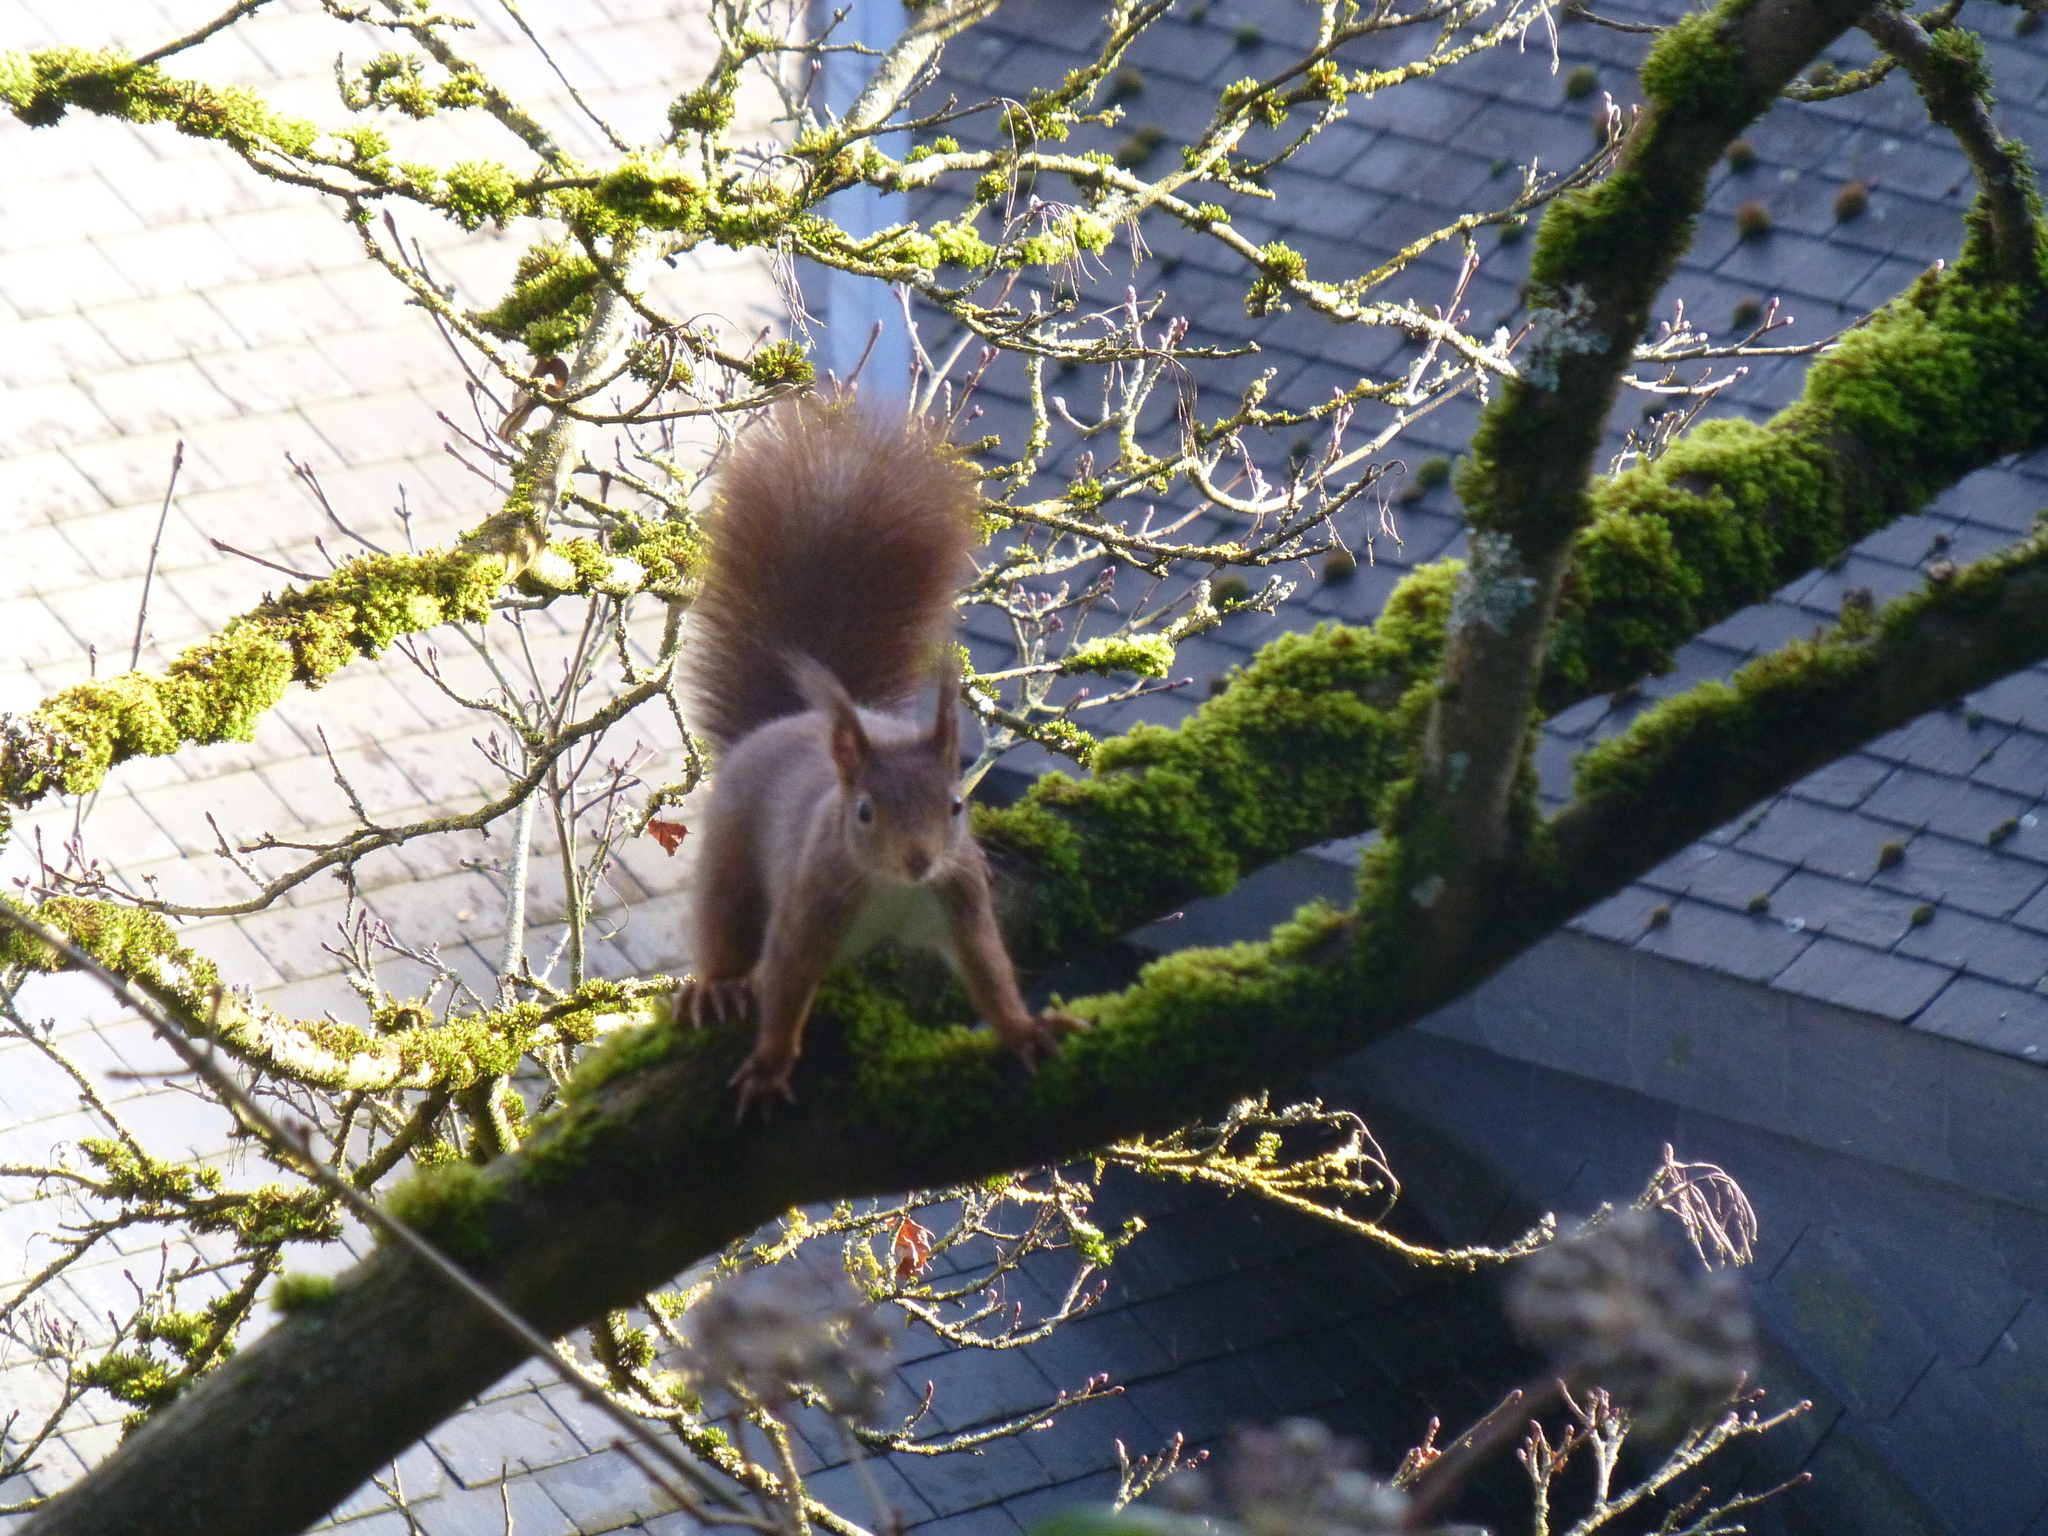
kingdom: Animalia
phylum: Chordata
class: Mammalia
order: Rodentia
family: Sciuridae
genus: Sciurus
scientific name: Sciurus vulgaris
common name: Eurasian red squirrel
